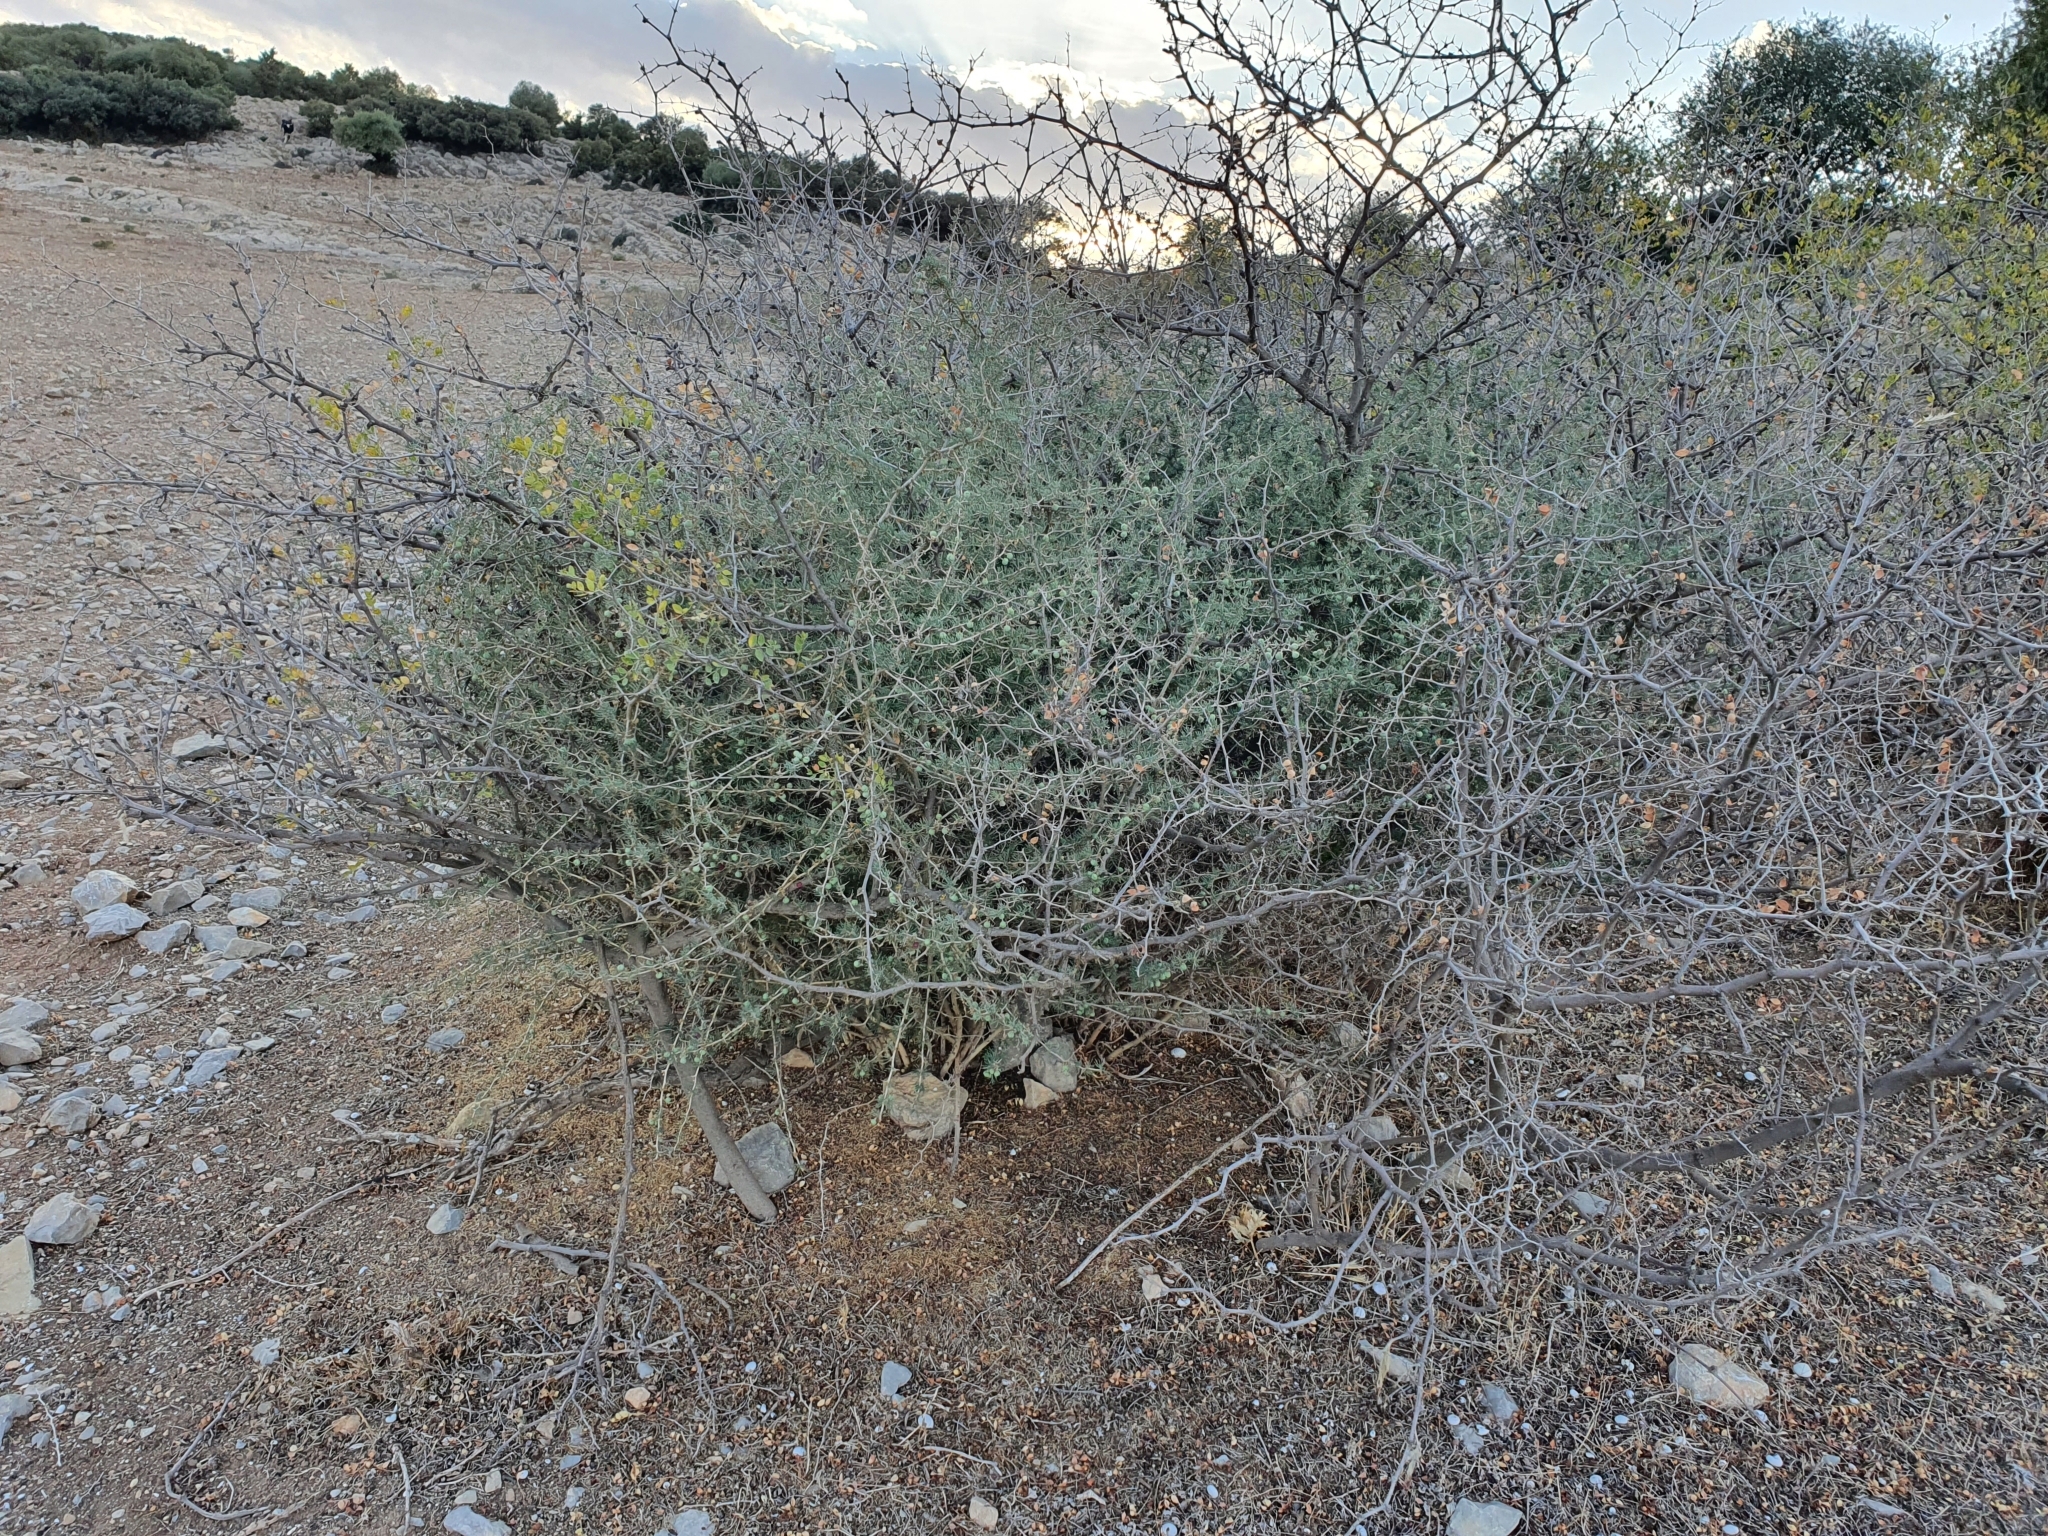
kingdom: Plantae
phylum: Tracheophyta
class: Liliopsida
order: Asparagales
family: Asparagaceae
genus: Asparagus
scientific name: Asparagus albus
